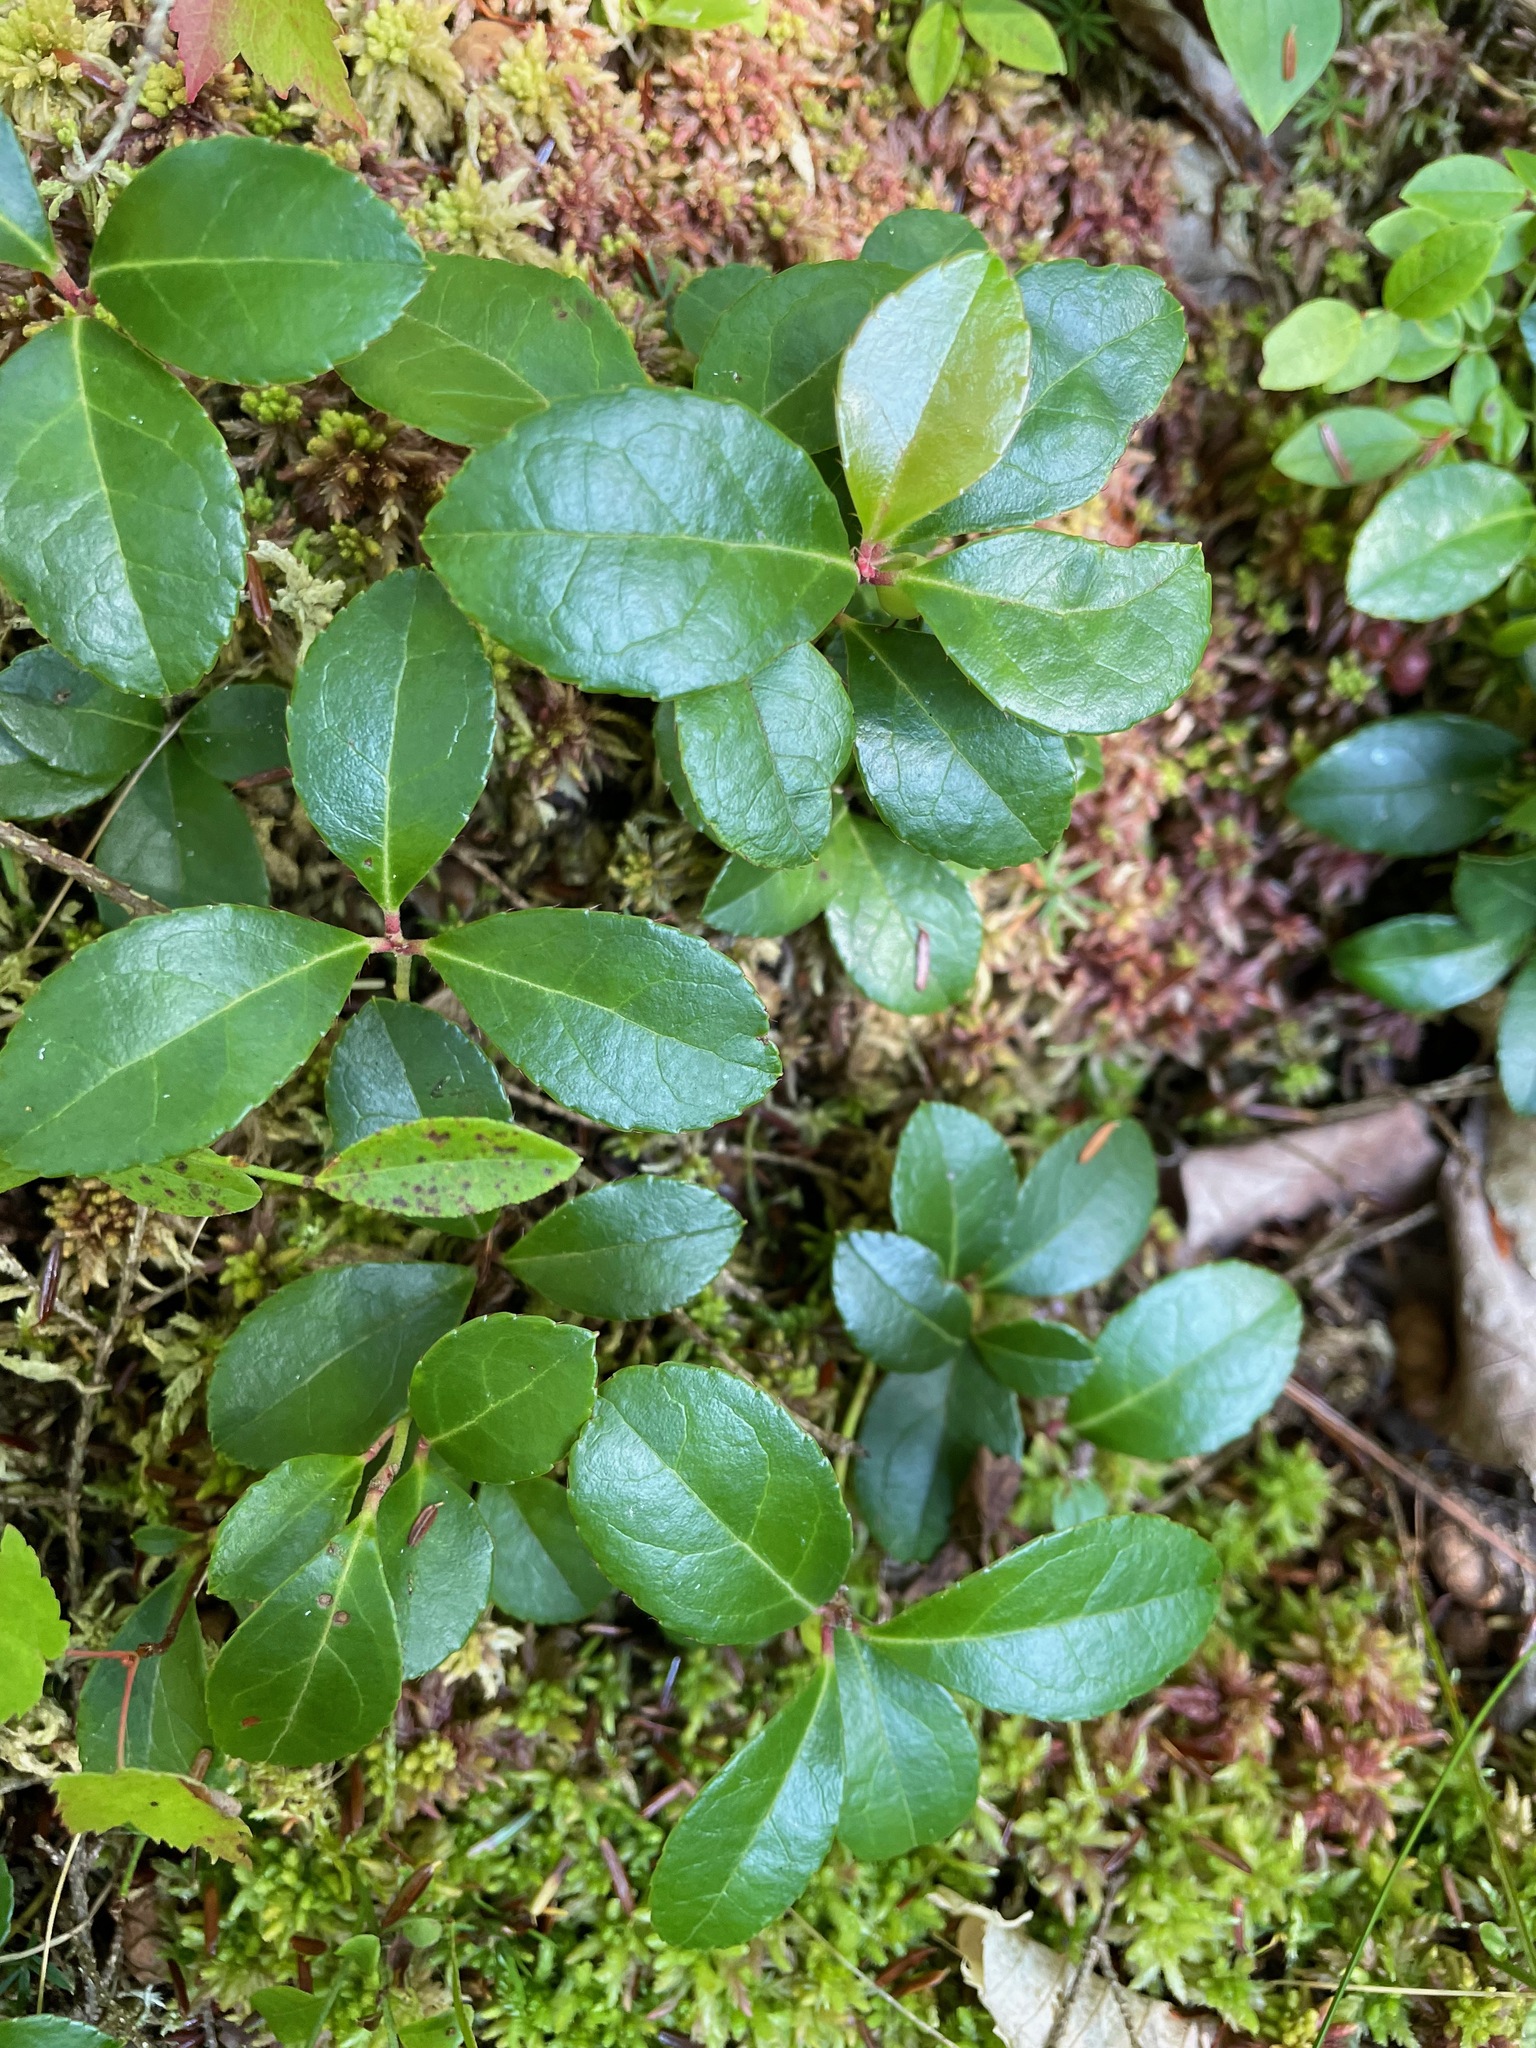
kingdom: Plantae
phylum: Tracheophyta
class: Magnoliopsida
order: Ericales
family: Ericaceae
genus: Gaultheria
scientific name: Gaultheria procumbens
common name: Checkerberry
